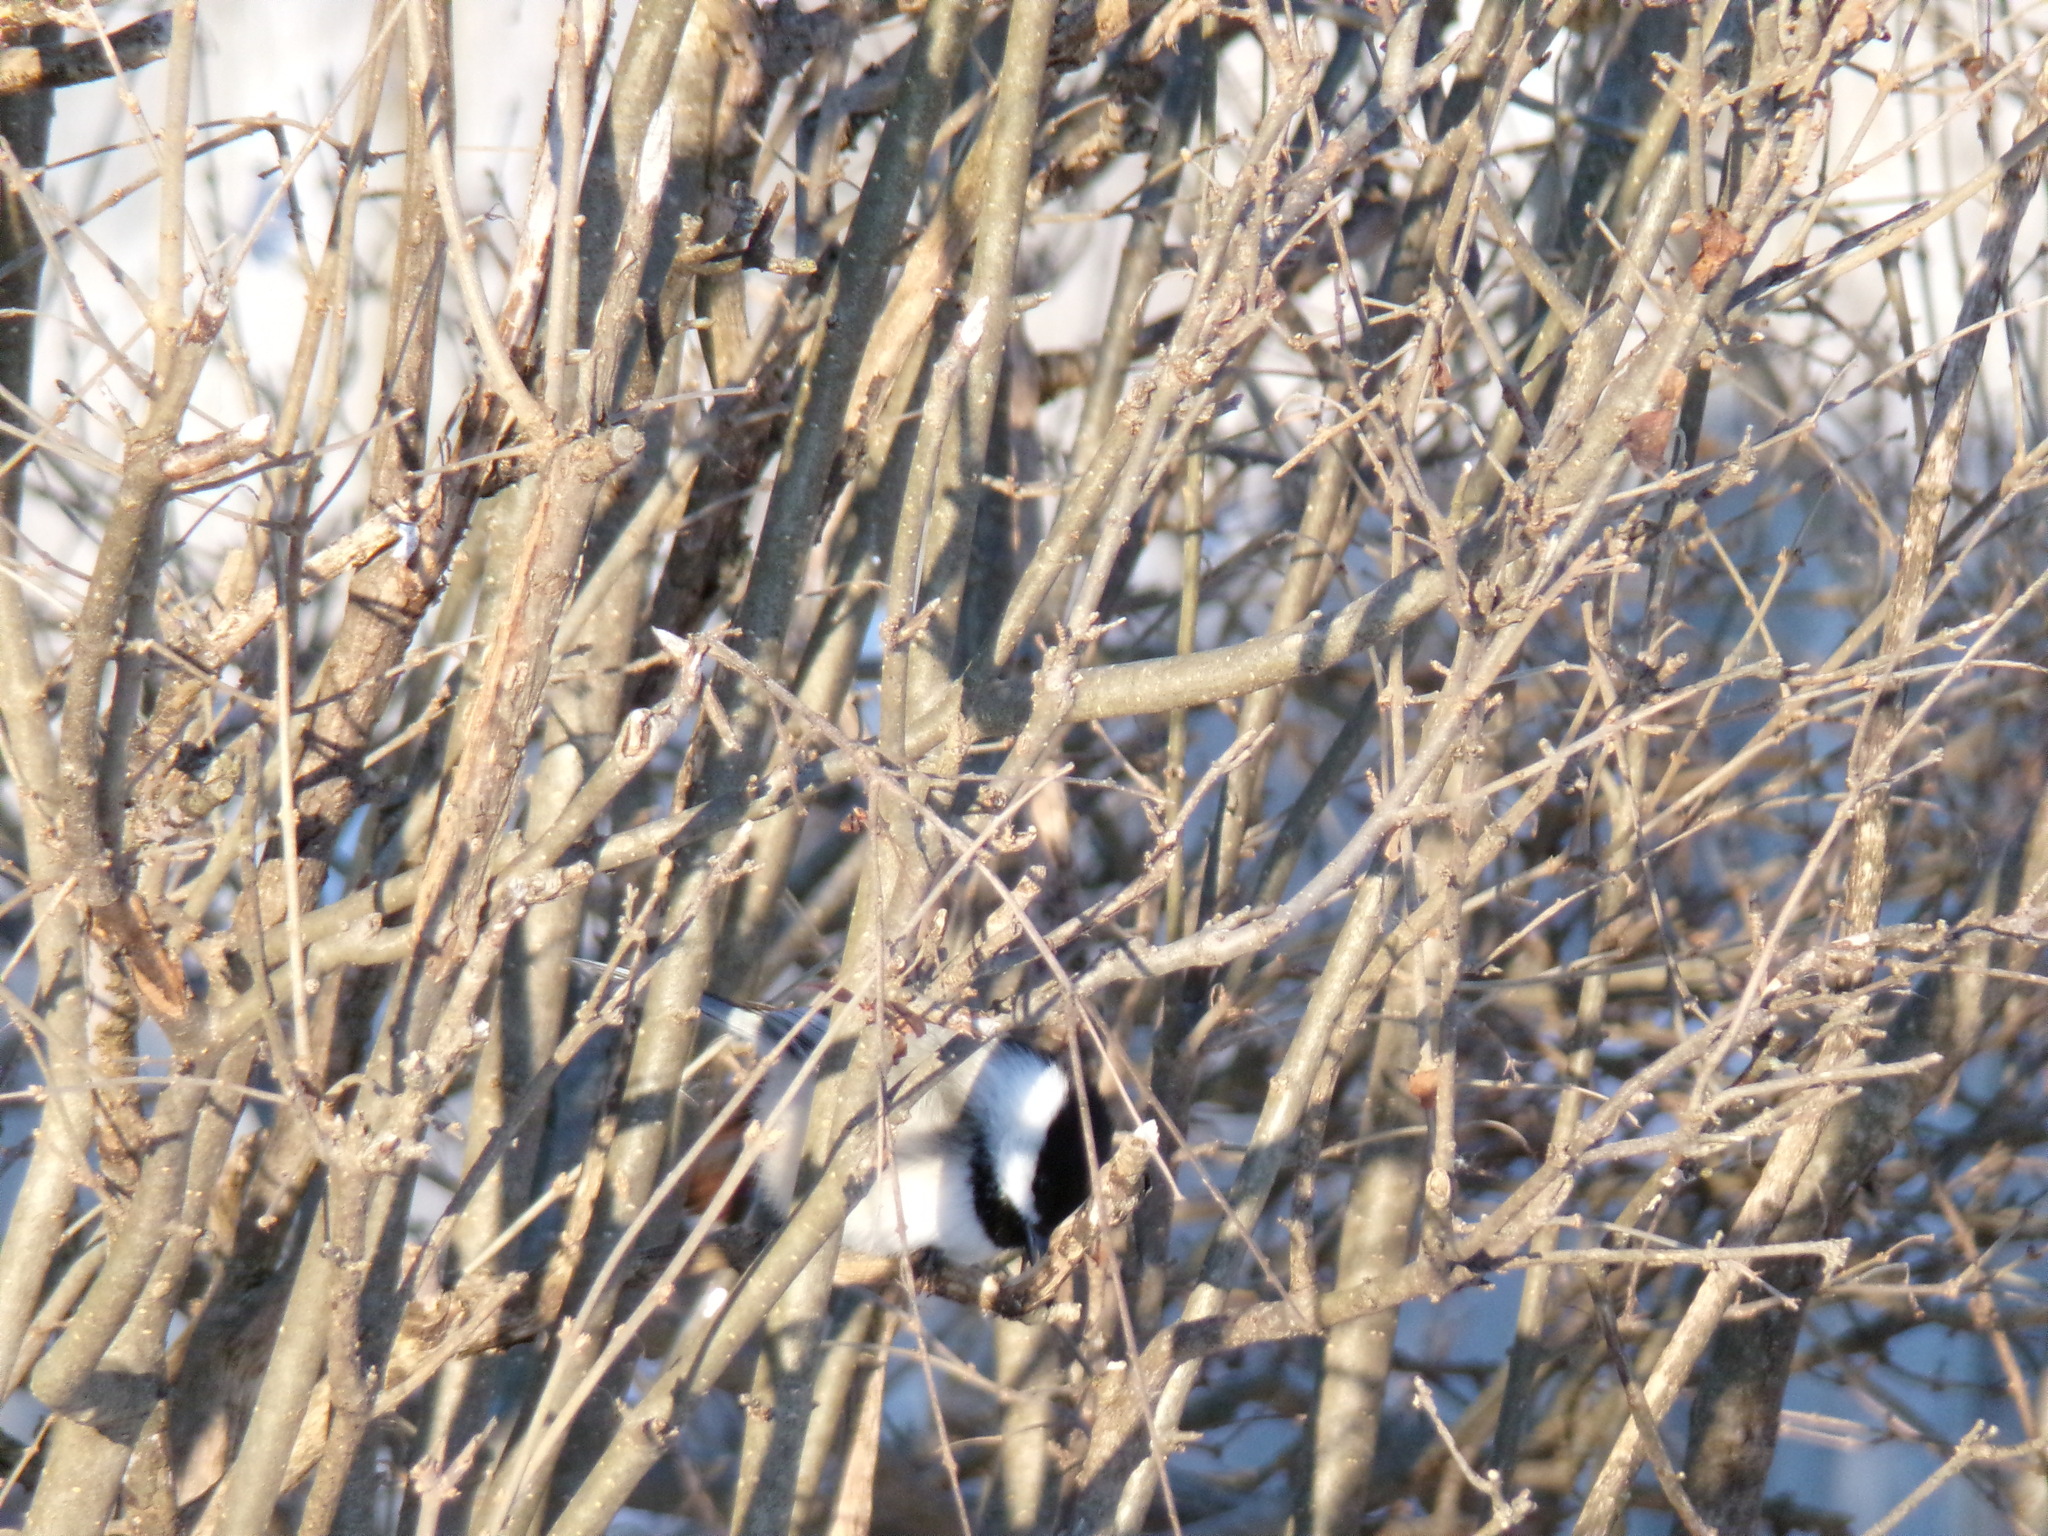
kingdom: Animalia
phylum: Chordata
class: Aves
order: Passeriformes
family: Paridae
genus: Poecile
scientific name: Poecile atricapillus
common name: Black-capped chickadee
